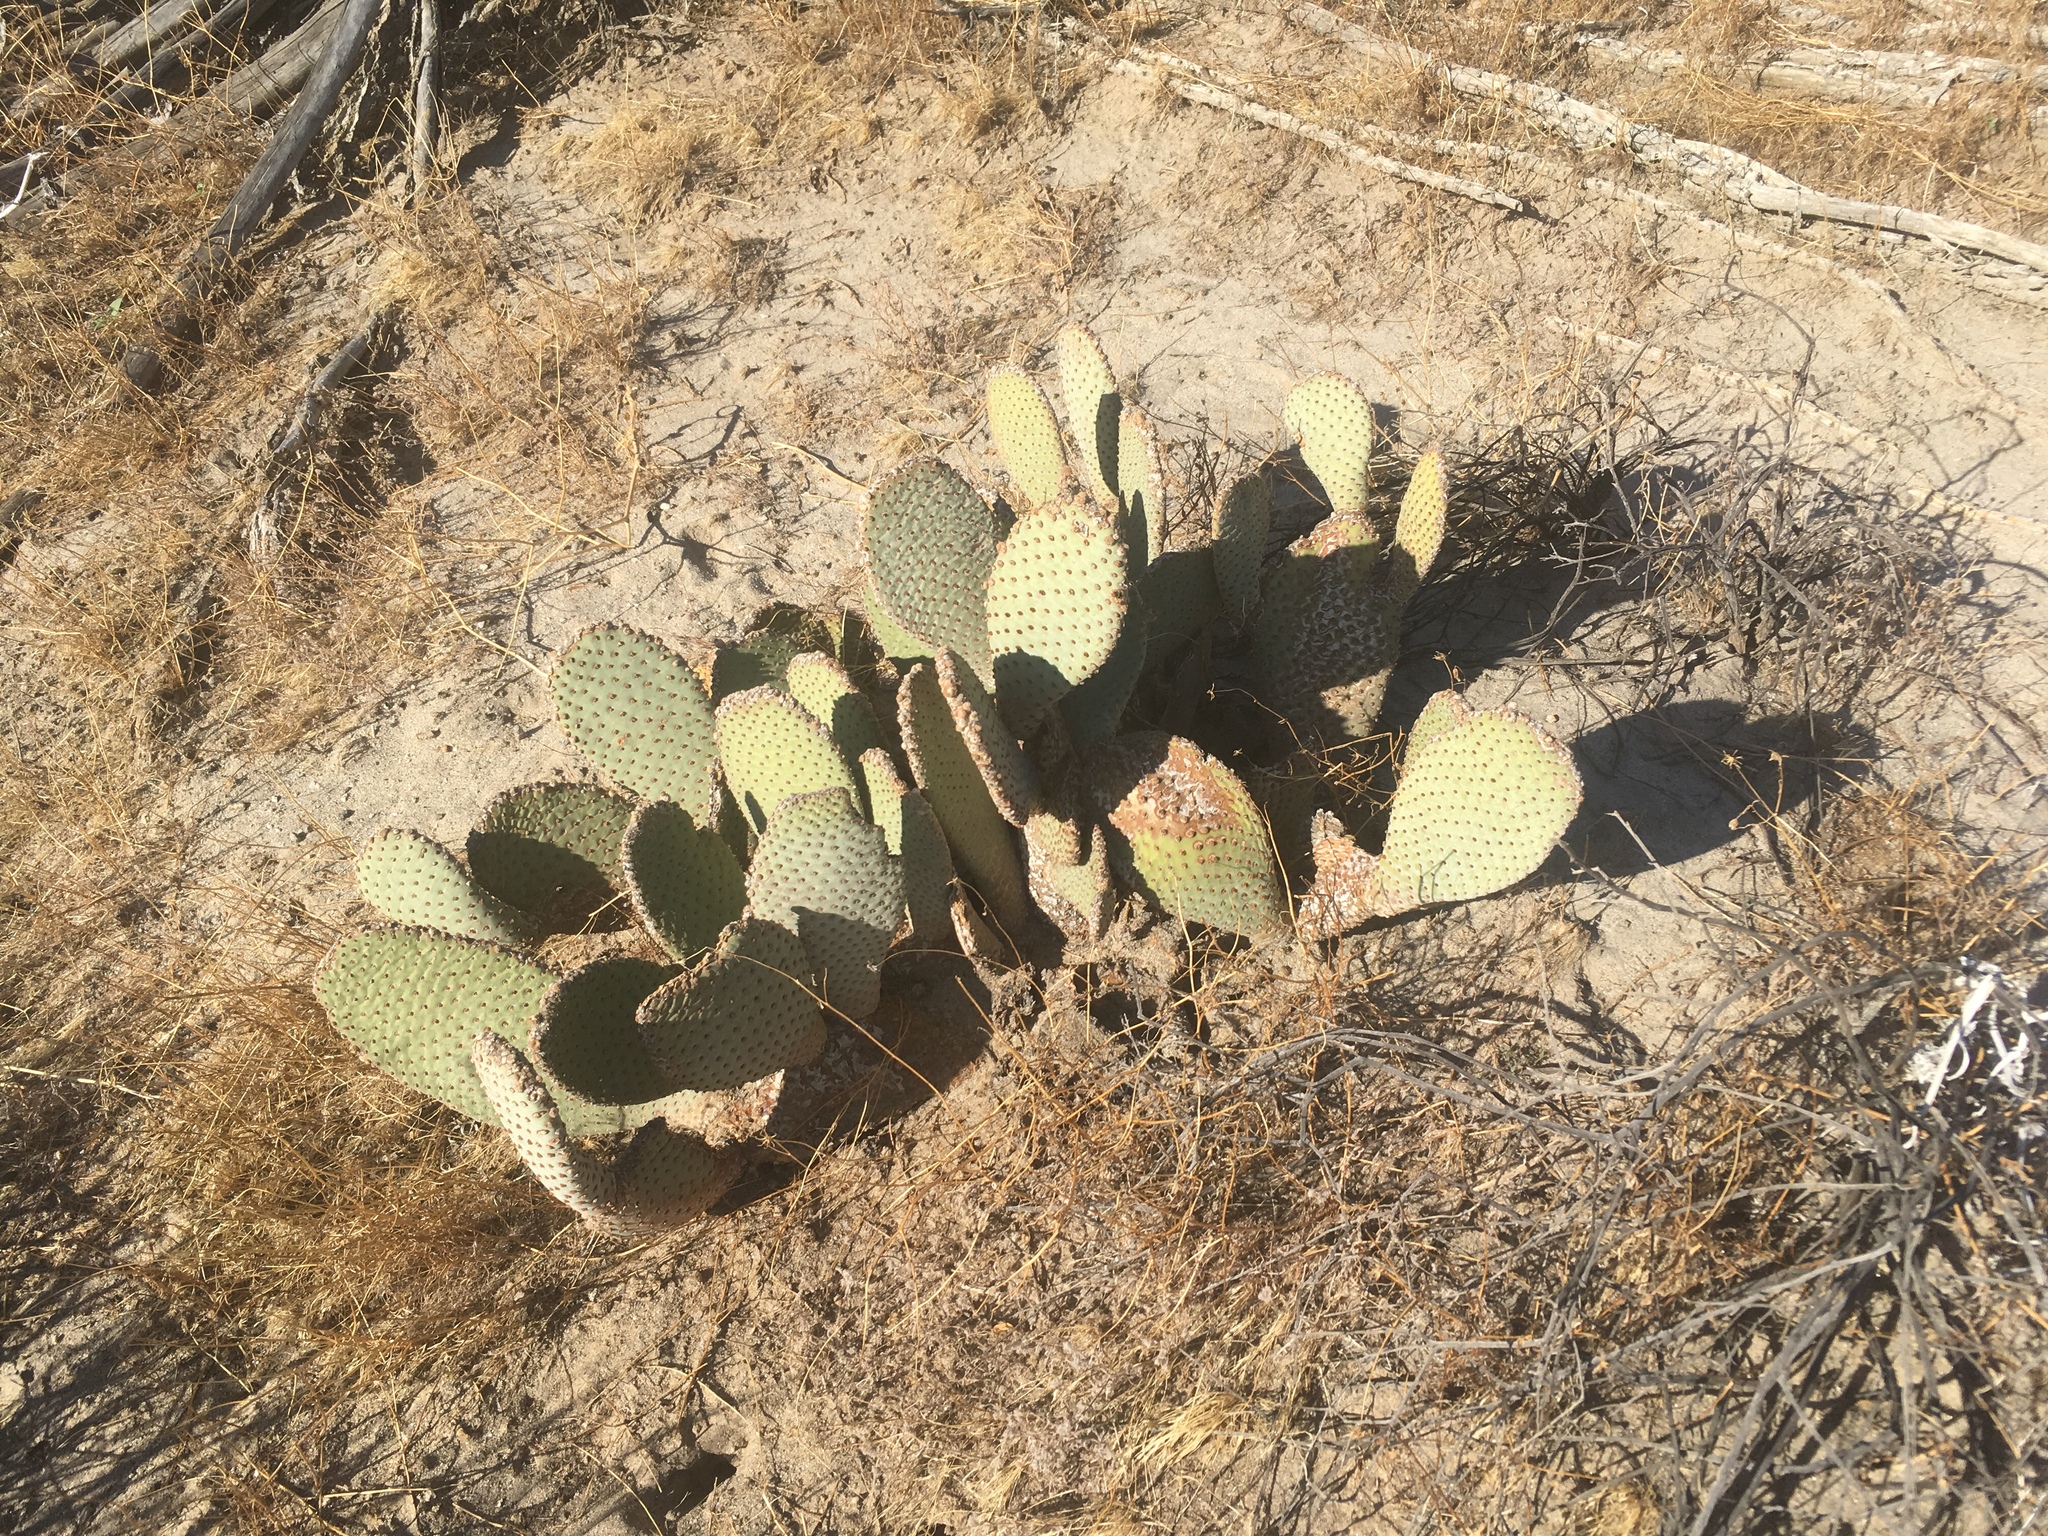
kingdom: Plantae
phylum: Tracheophyta
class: Magnoliopsida
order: Caryophyllales
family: Cactaceae
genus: Opuntia
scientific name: Opuntia basilaris
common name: Beavertail prickly-pear
